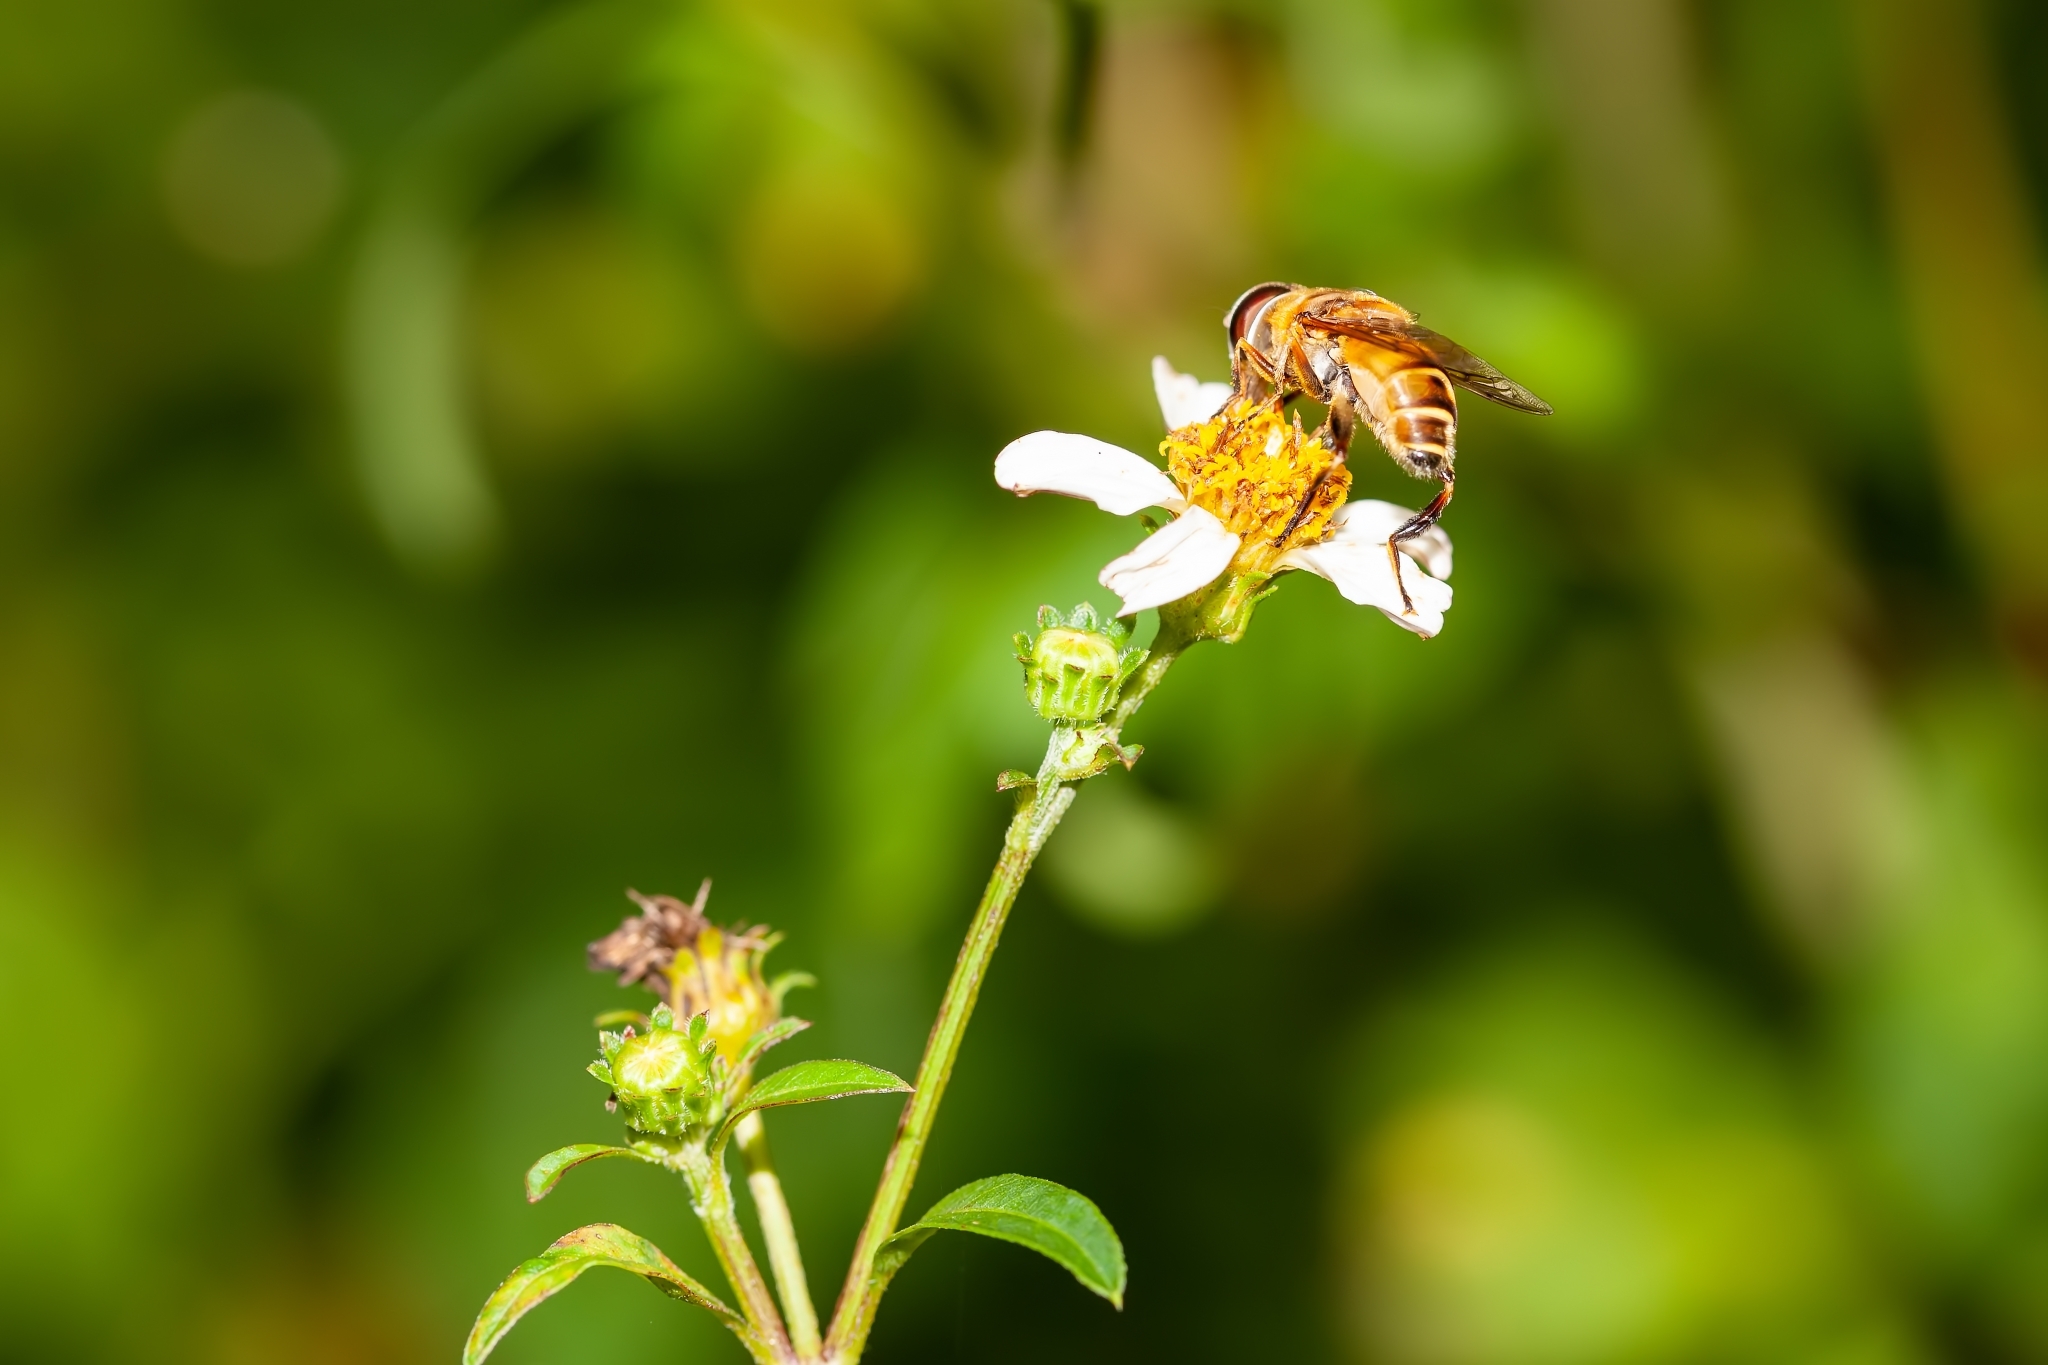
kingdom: Animalia
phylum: Arthropoda
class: Insecta
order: Diptera
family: Syrphidae
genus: Palpada
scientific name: Palpada vinetorum
